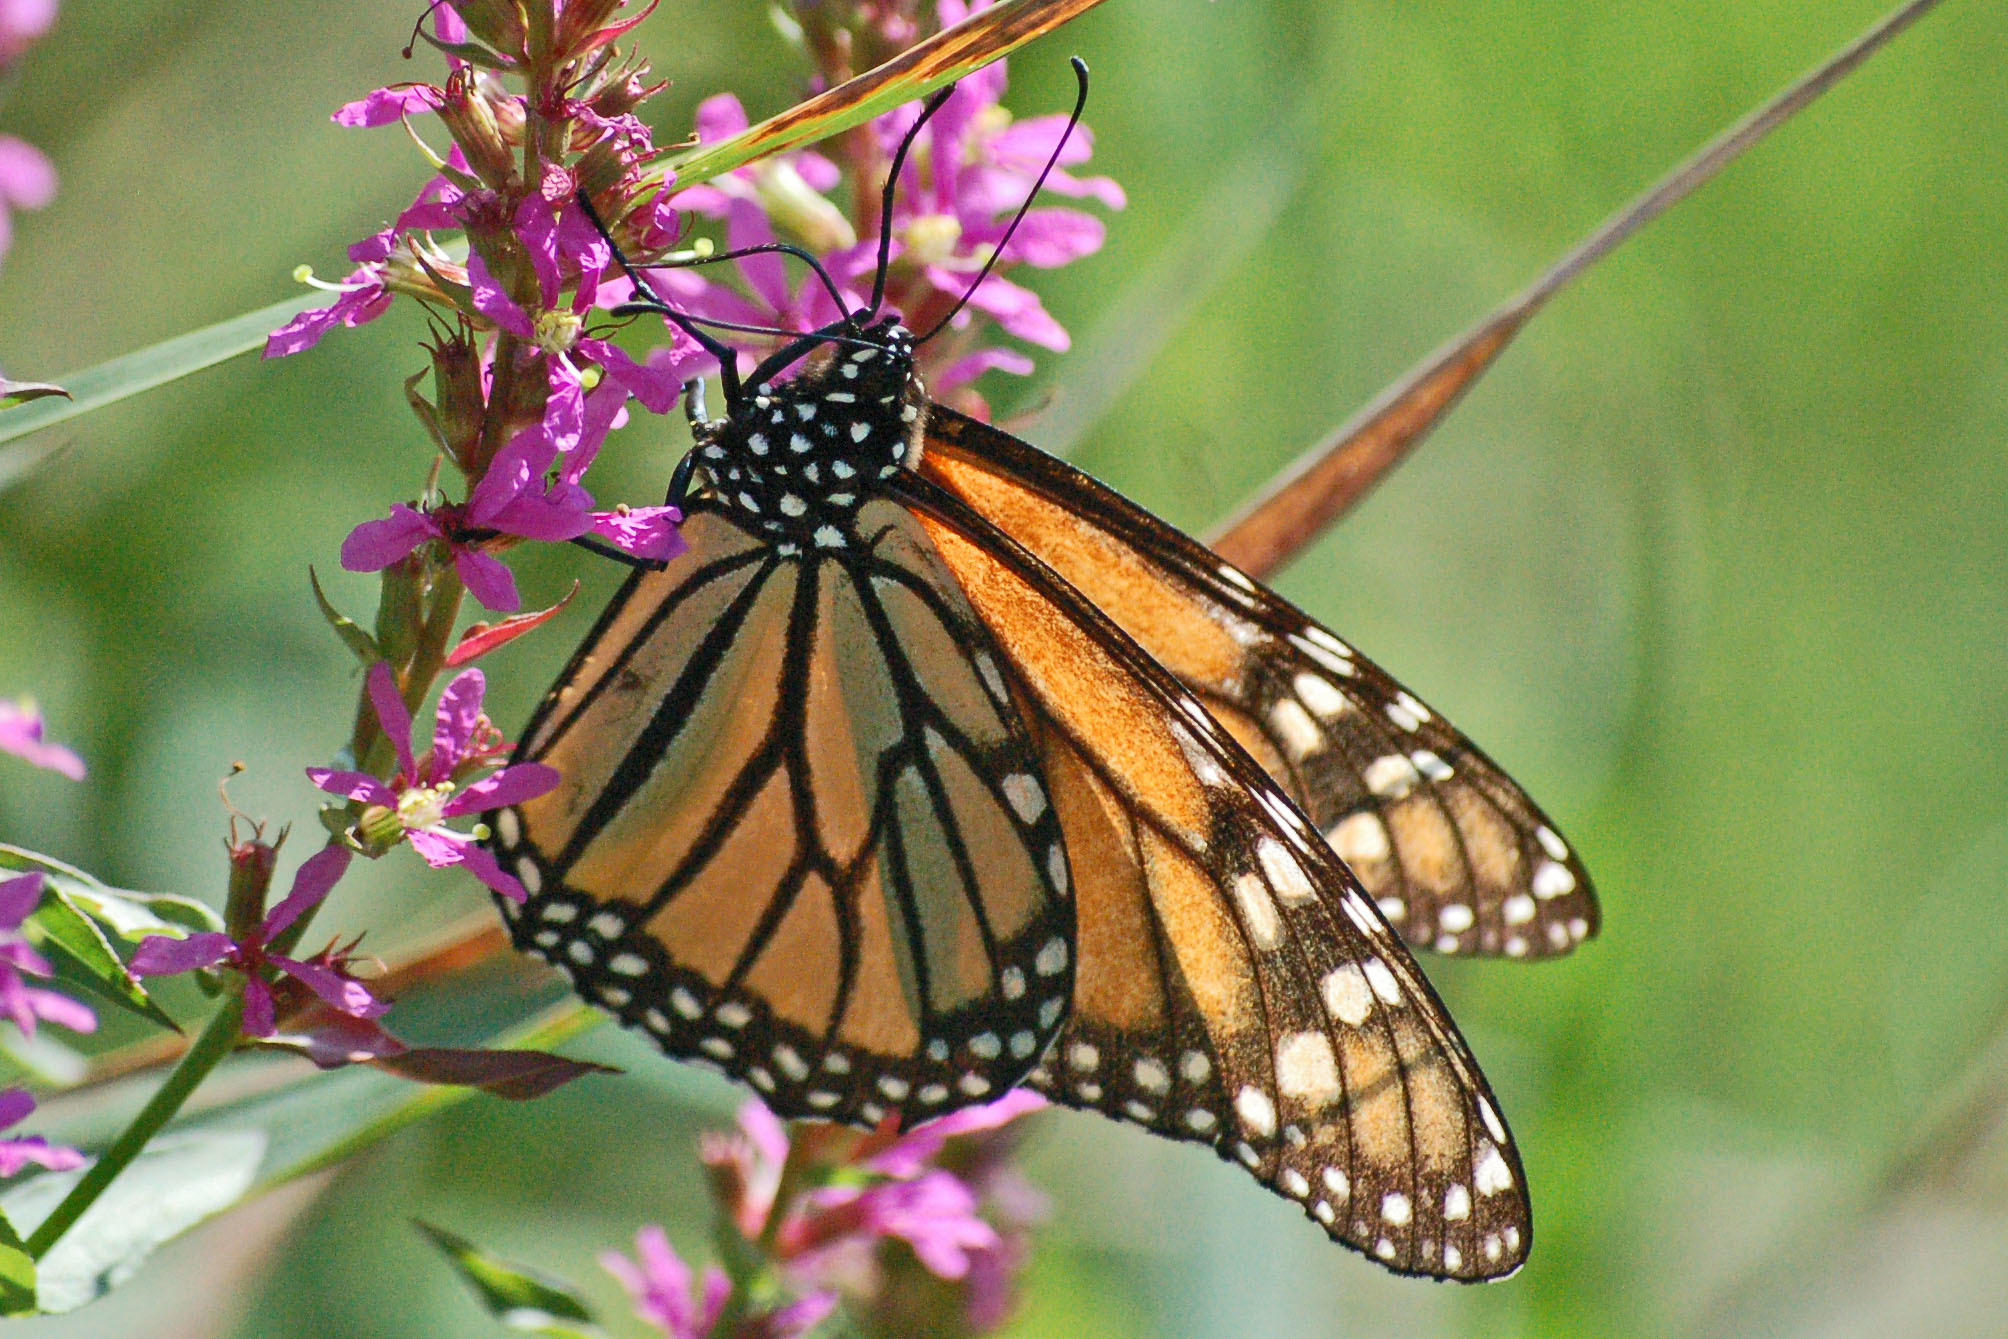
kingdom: Animalia
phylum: Arthropoda
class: Insecta
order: Lepidoptera
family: Nymphalidae
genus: Danaus
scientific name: Danaus plexippus
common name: Monarch
